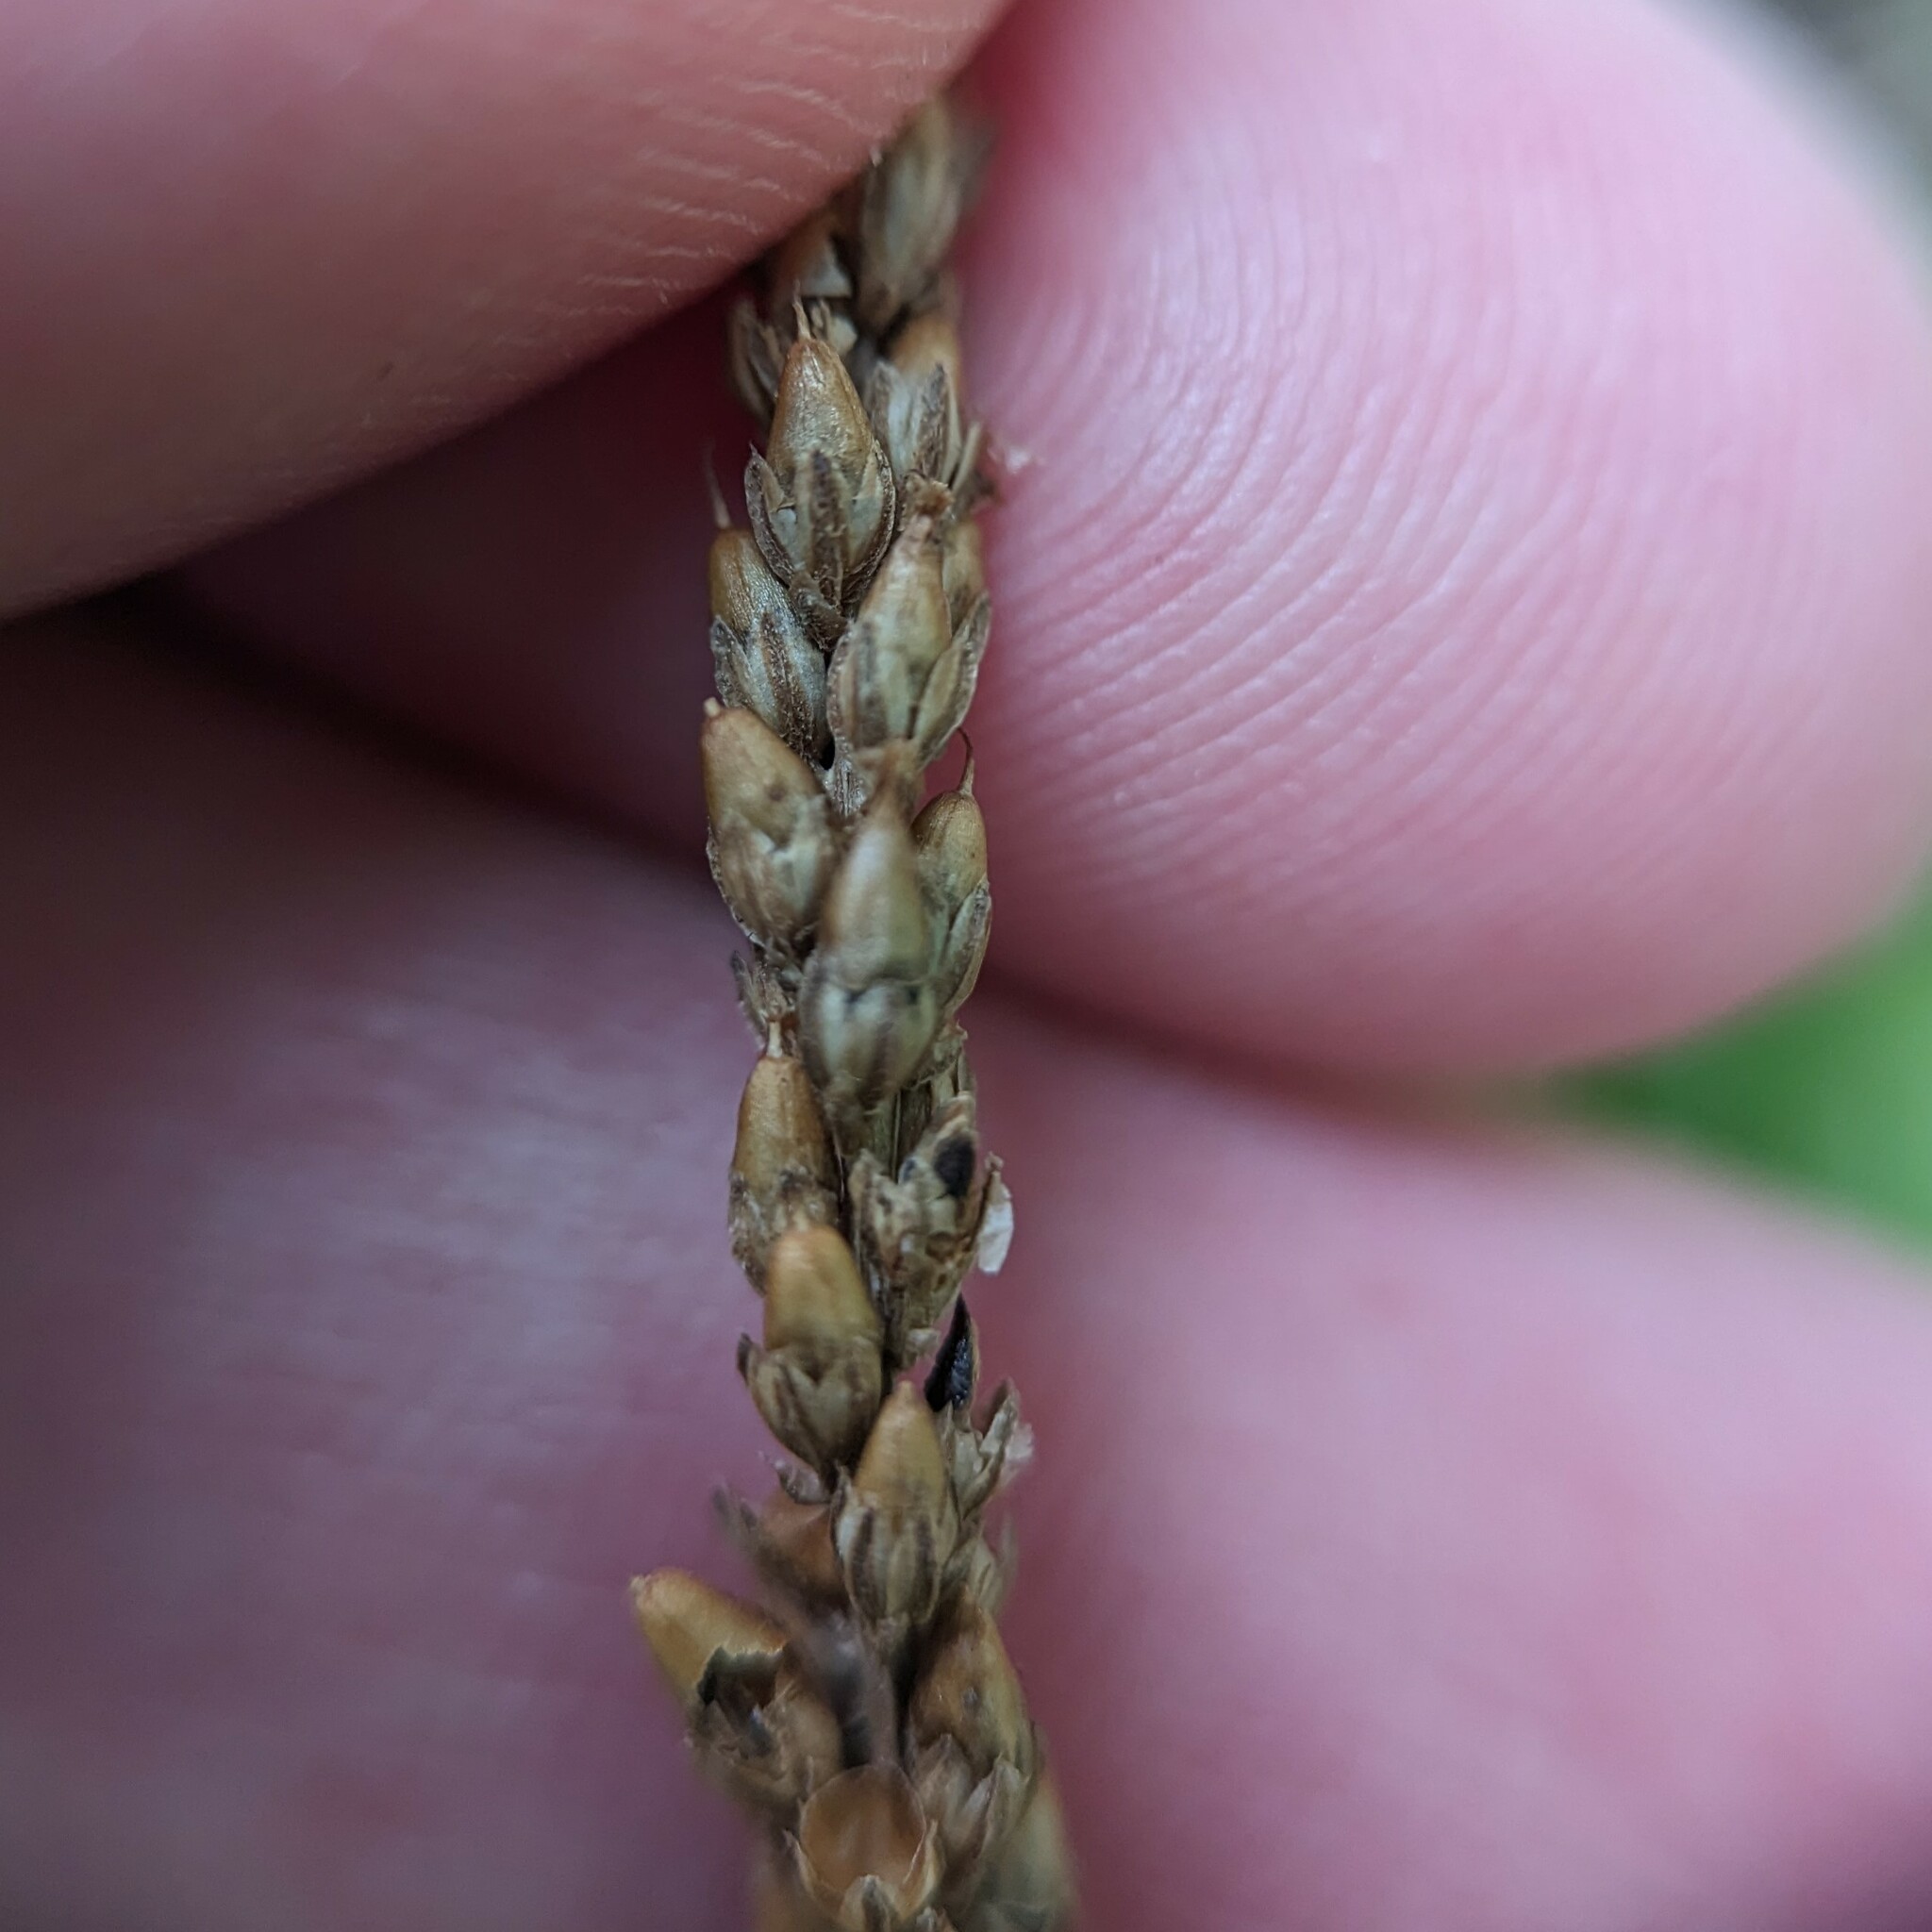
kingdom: Plantae
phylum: Tracheophyta
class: Magnoliopsida
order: Lamiales
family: Plantaginaceae
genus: Plantago
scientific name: Plantago rugelii
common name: American plantain
